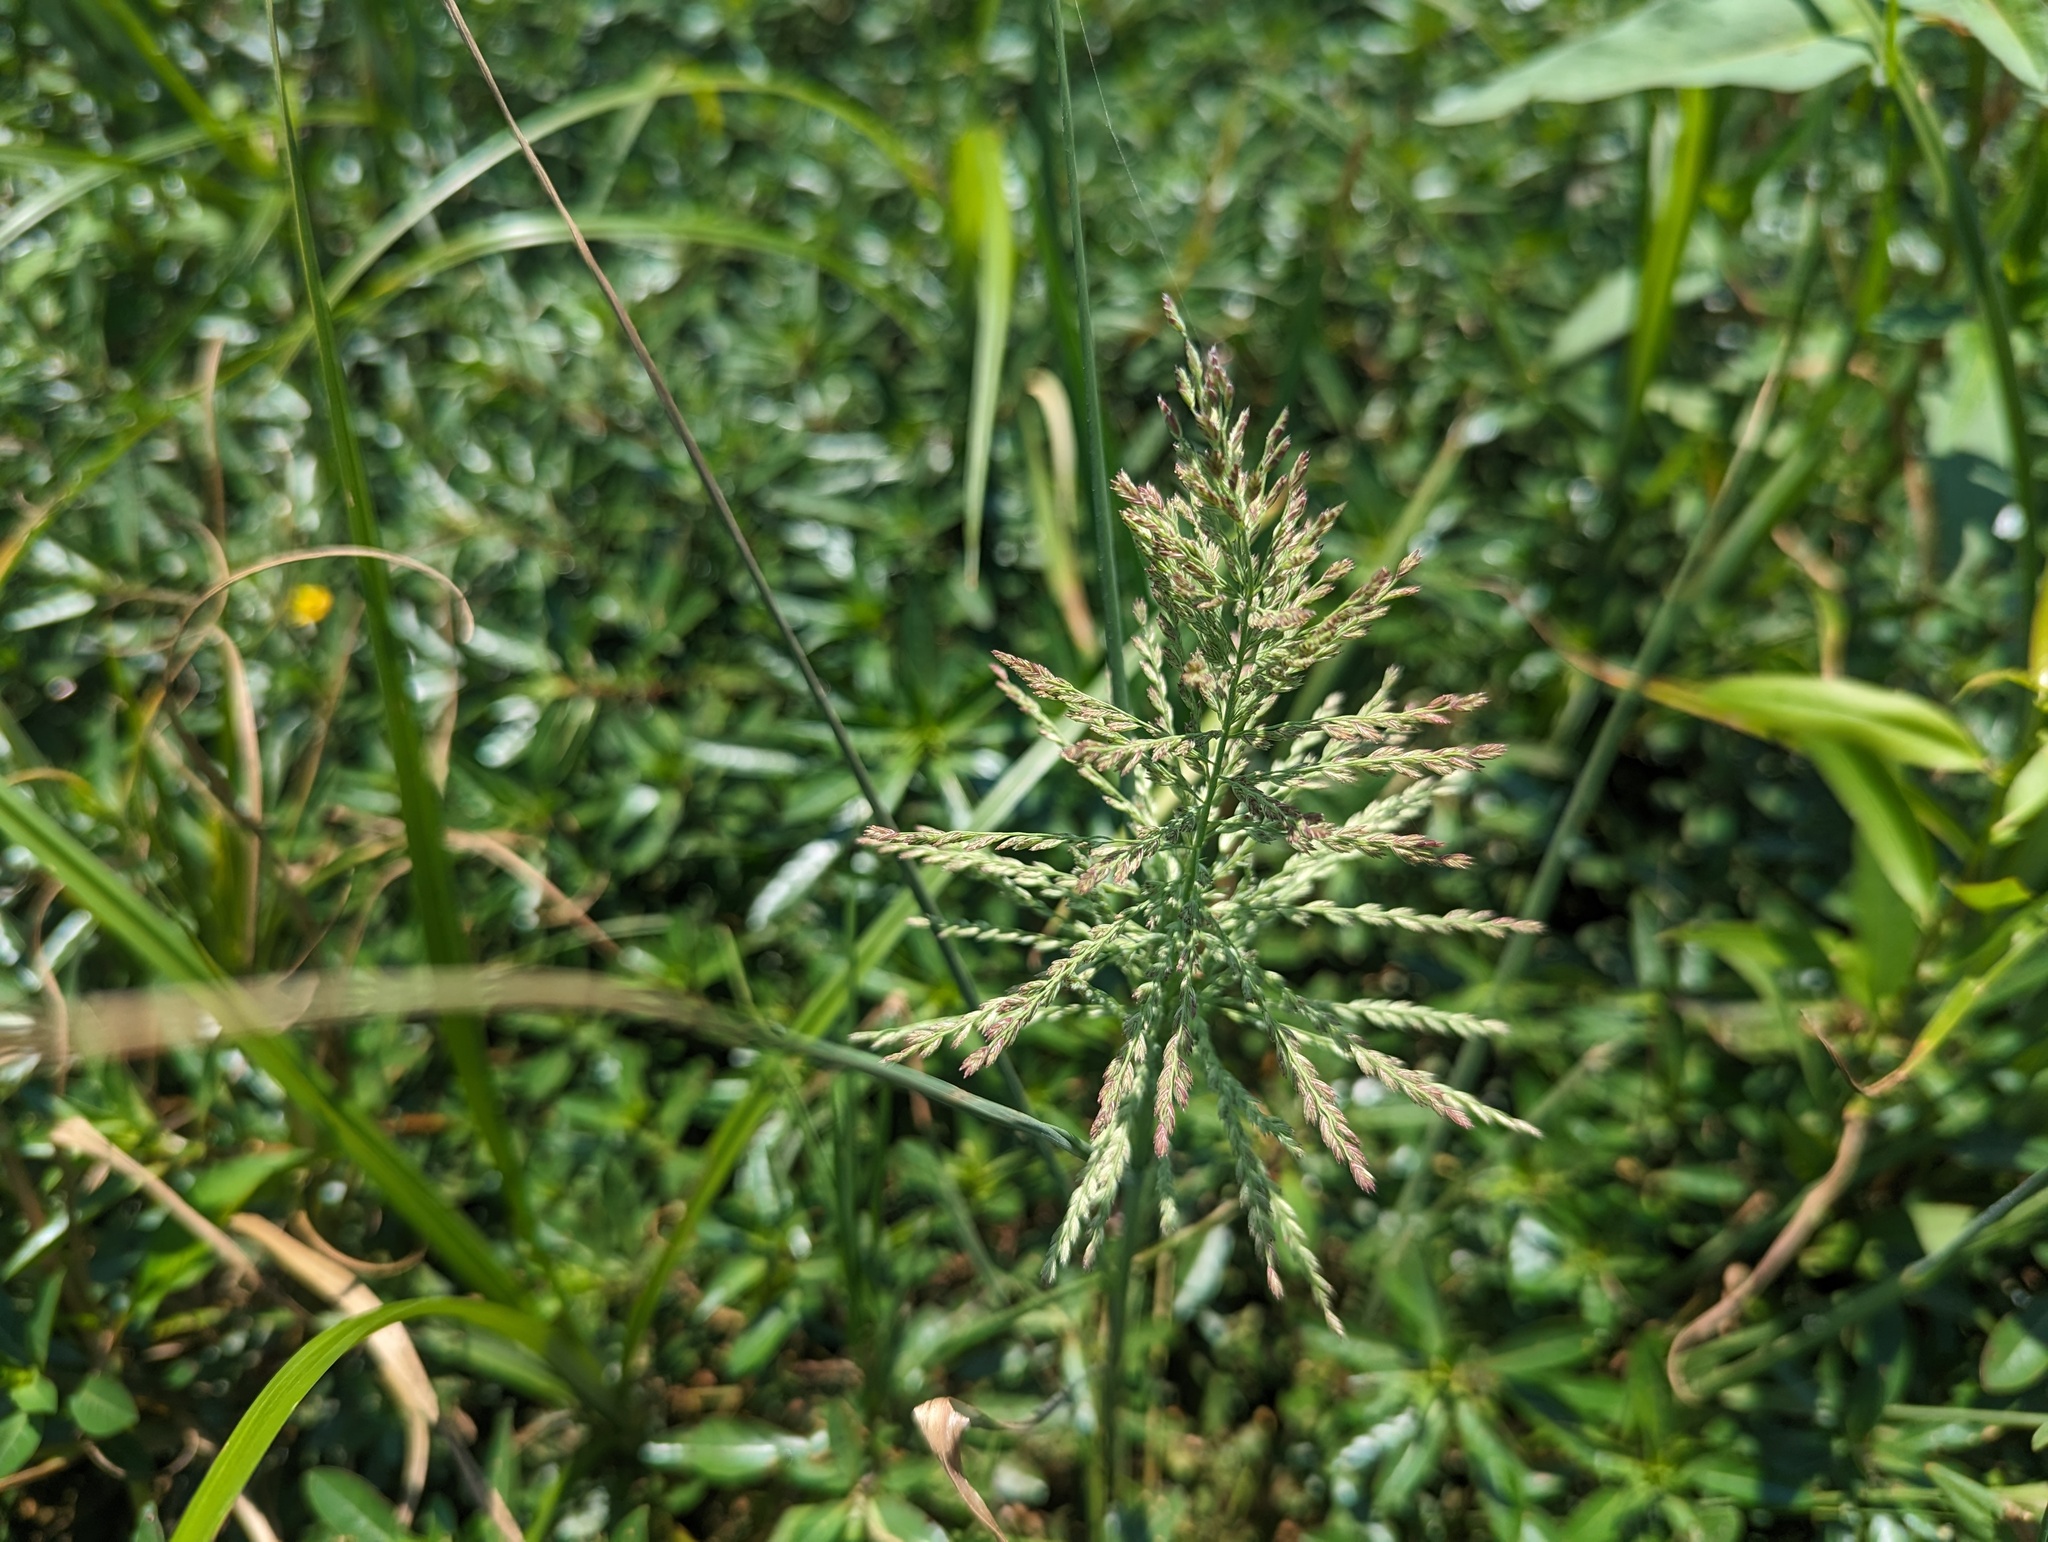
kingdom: Plantae
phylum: Tracheophyta
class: Liliopsida
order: Poales
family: Poaceae
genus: Leptochloa
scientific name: Leptochloa panicoides
